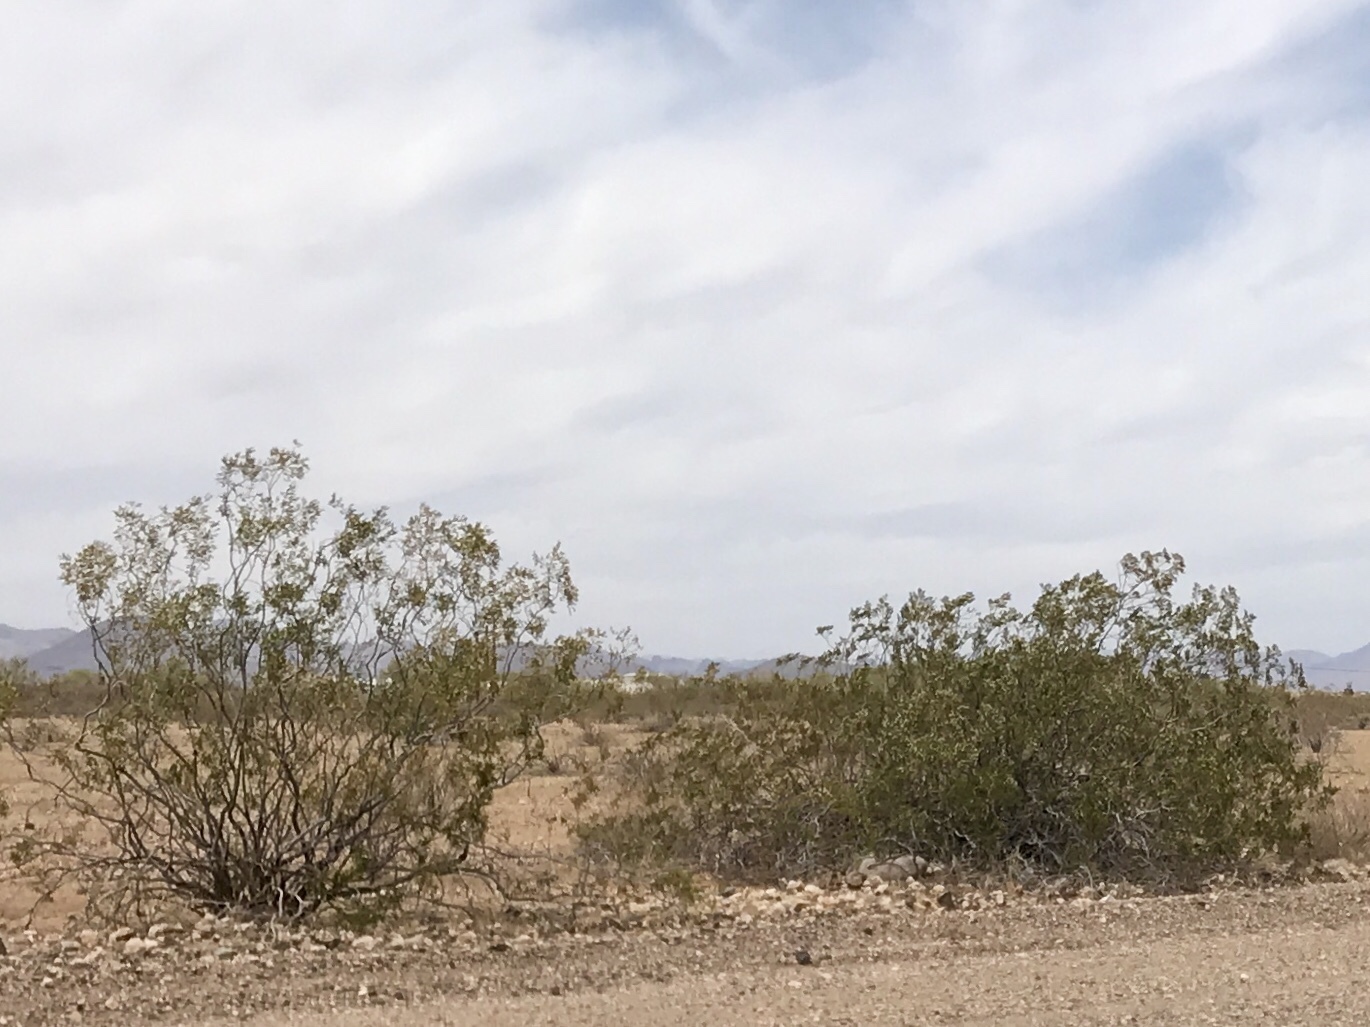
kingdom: Plantae
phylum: Tracheophyta
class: Magnoliopsida
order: Zygophyllales
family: Zygophyllaceae
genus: Larrea
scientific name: Larrea tridentata
